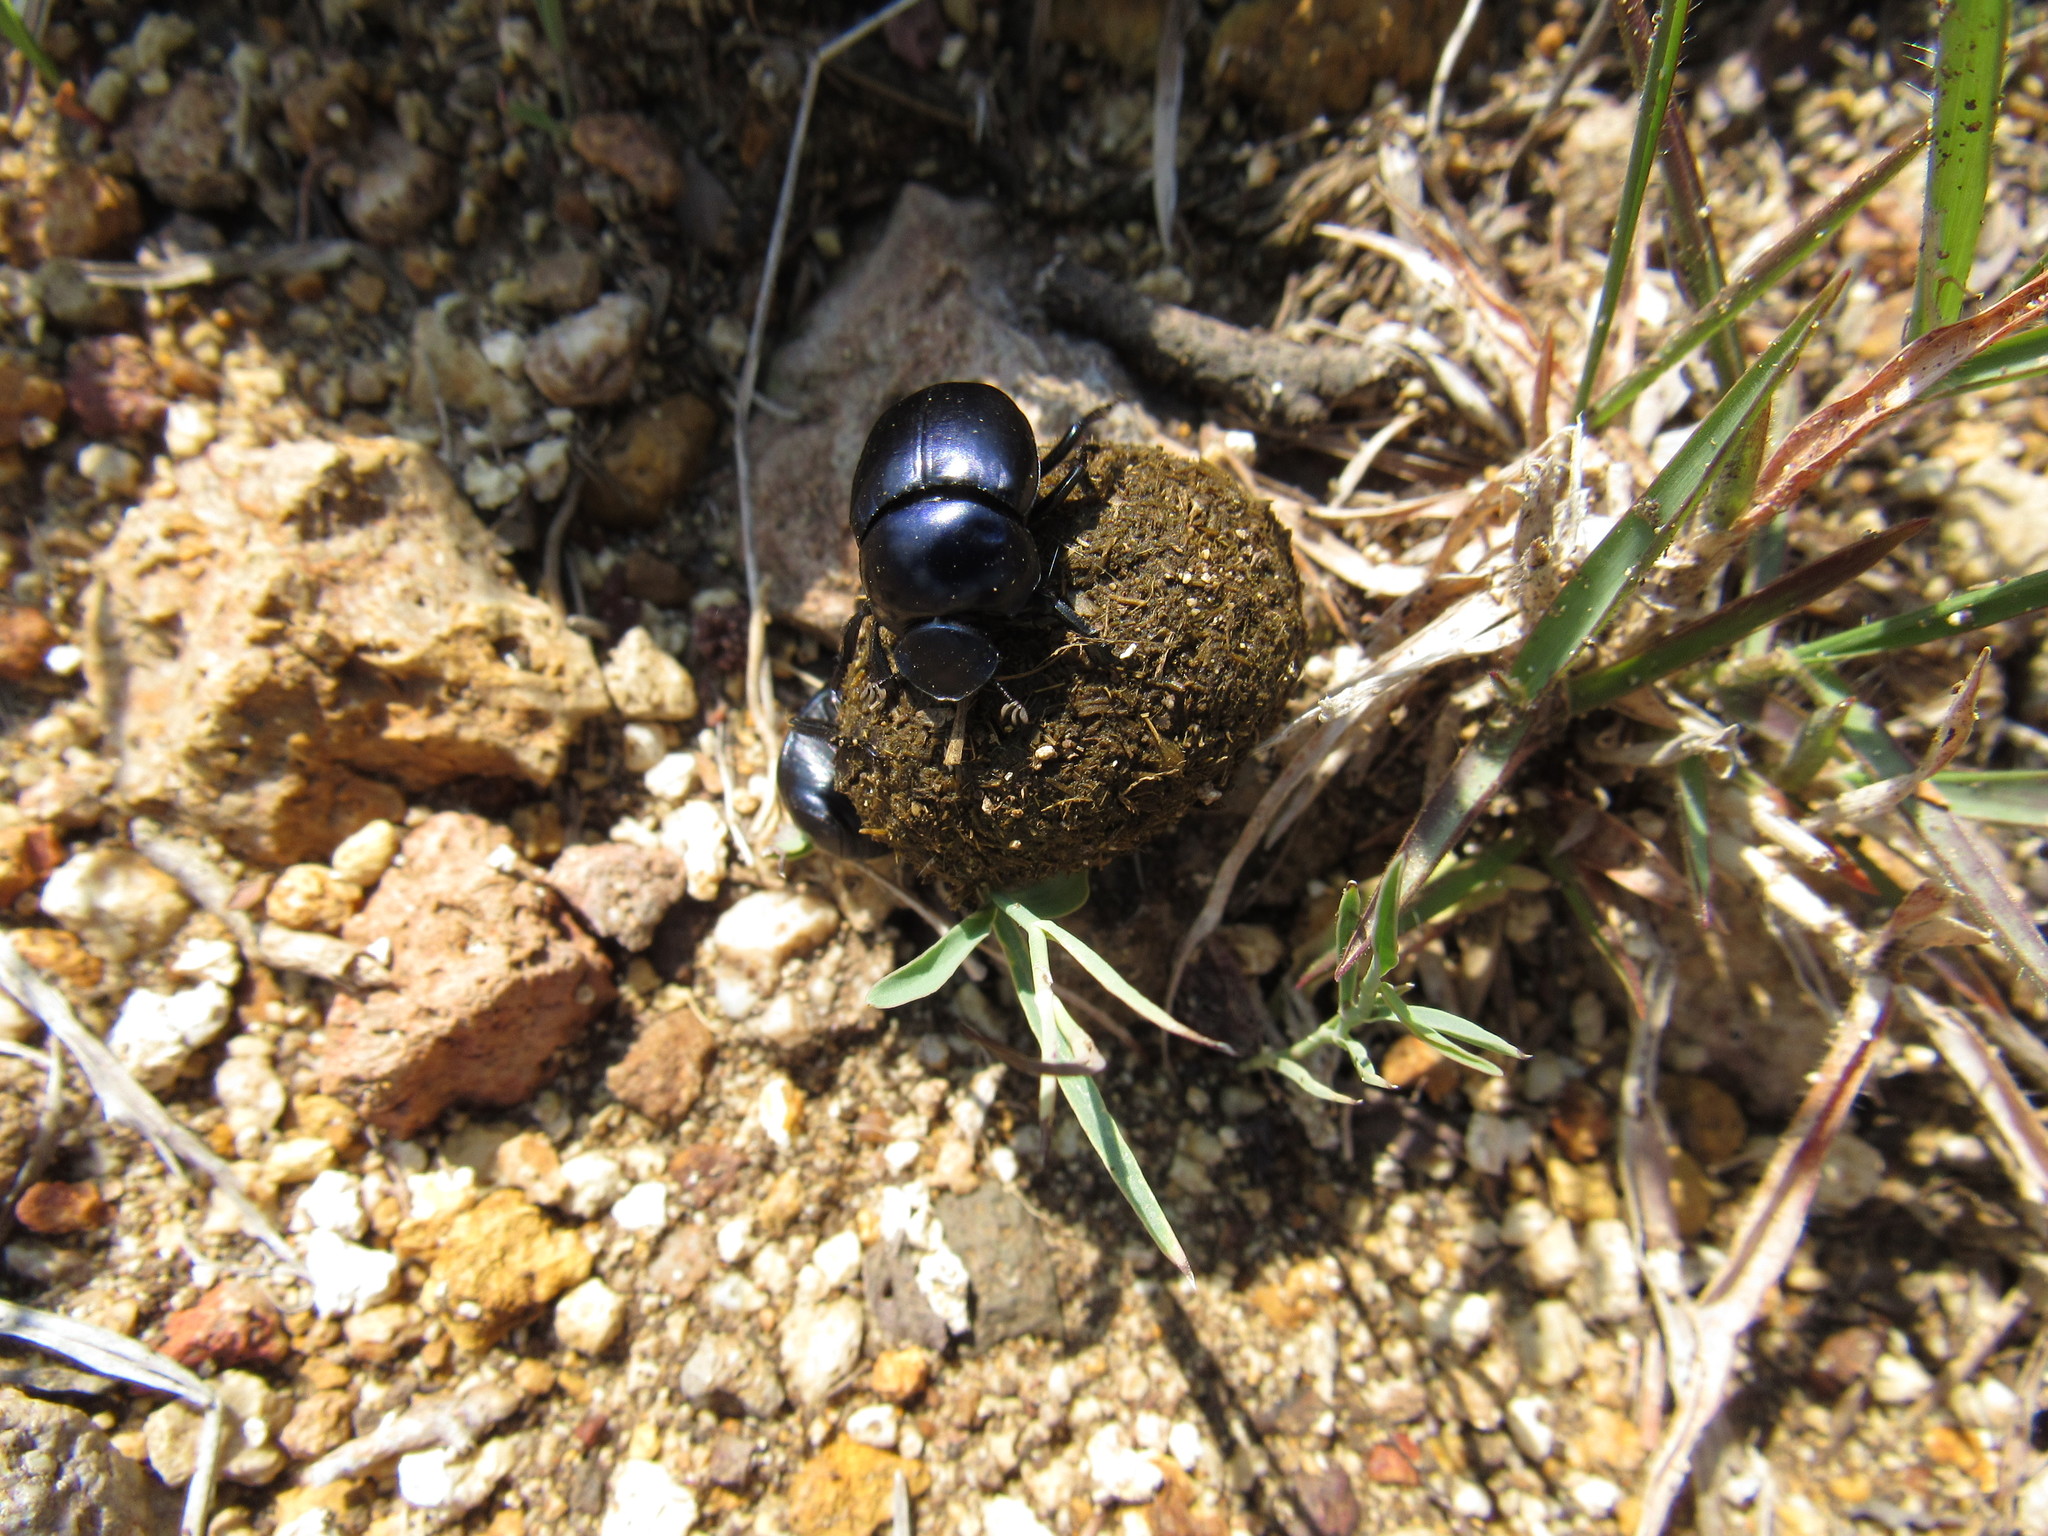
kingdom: Animalia
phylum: Arthropoda
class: Insecta
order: Coleoptera
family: Scarabaeidae
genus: Canthon
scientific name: Canthon humectus
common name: Tumblebug
